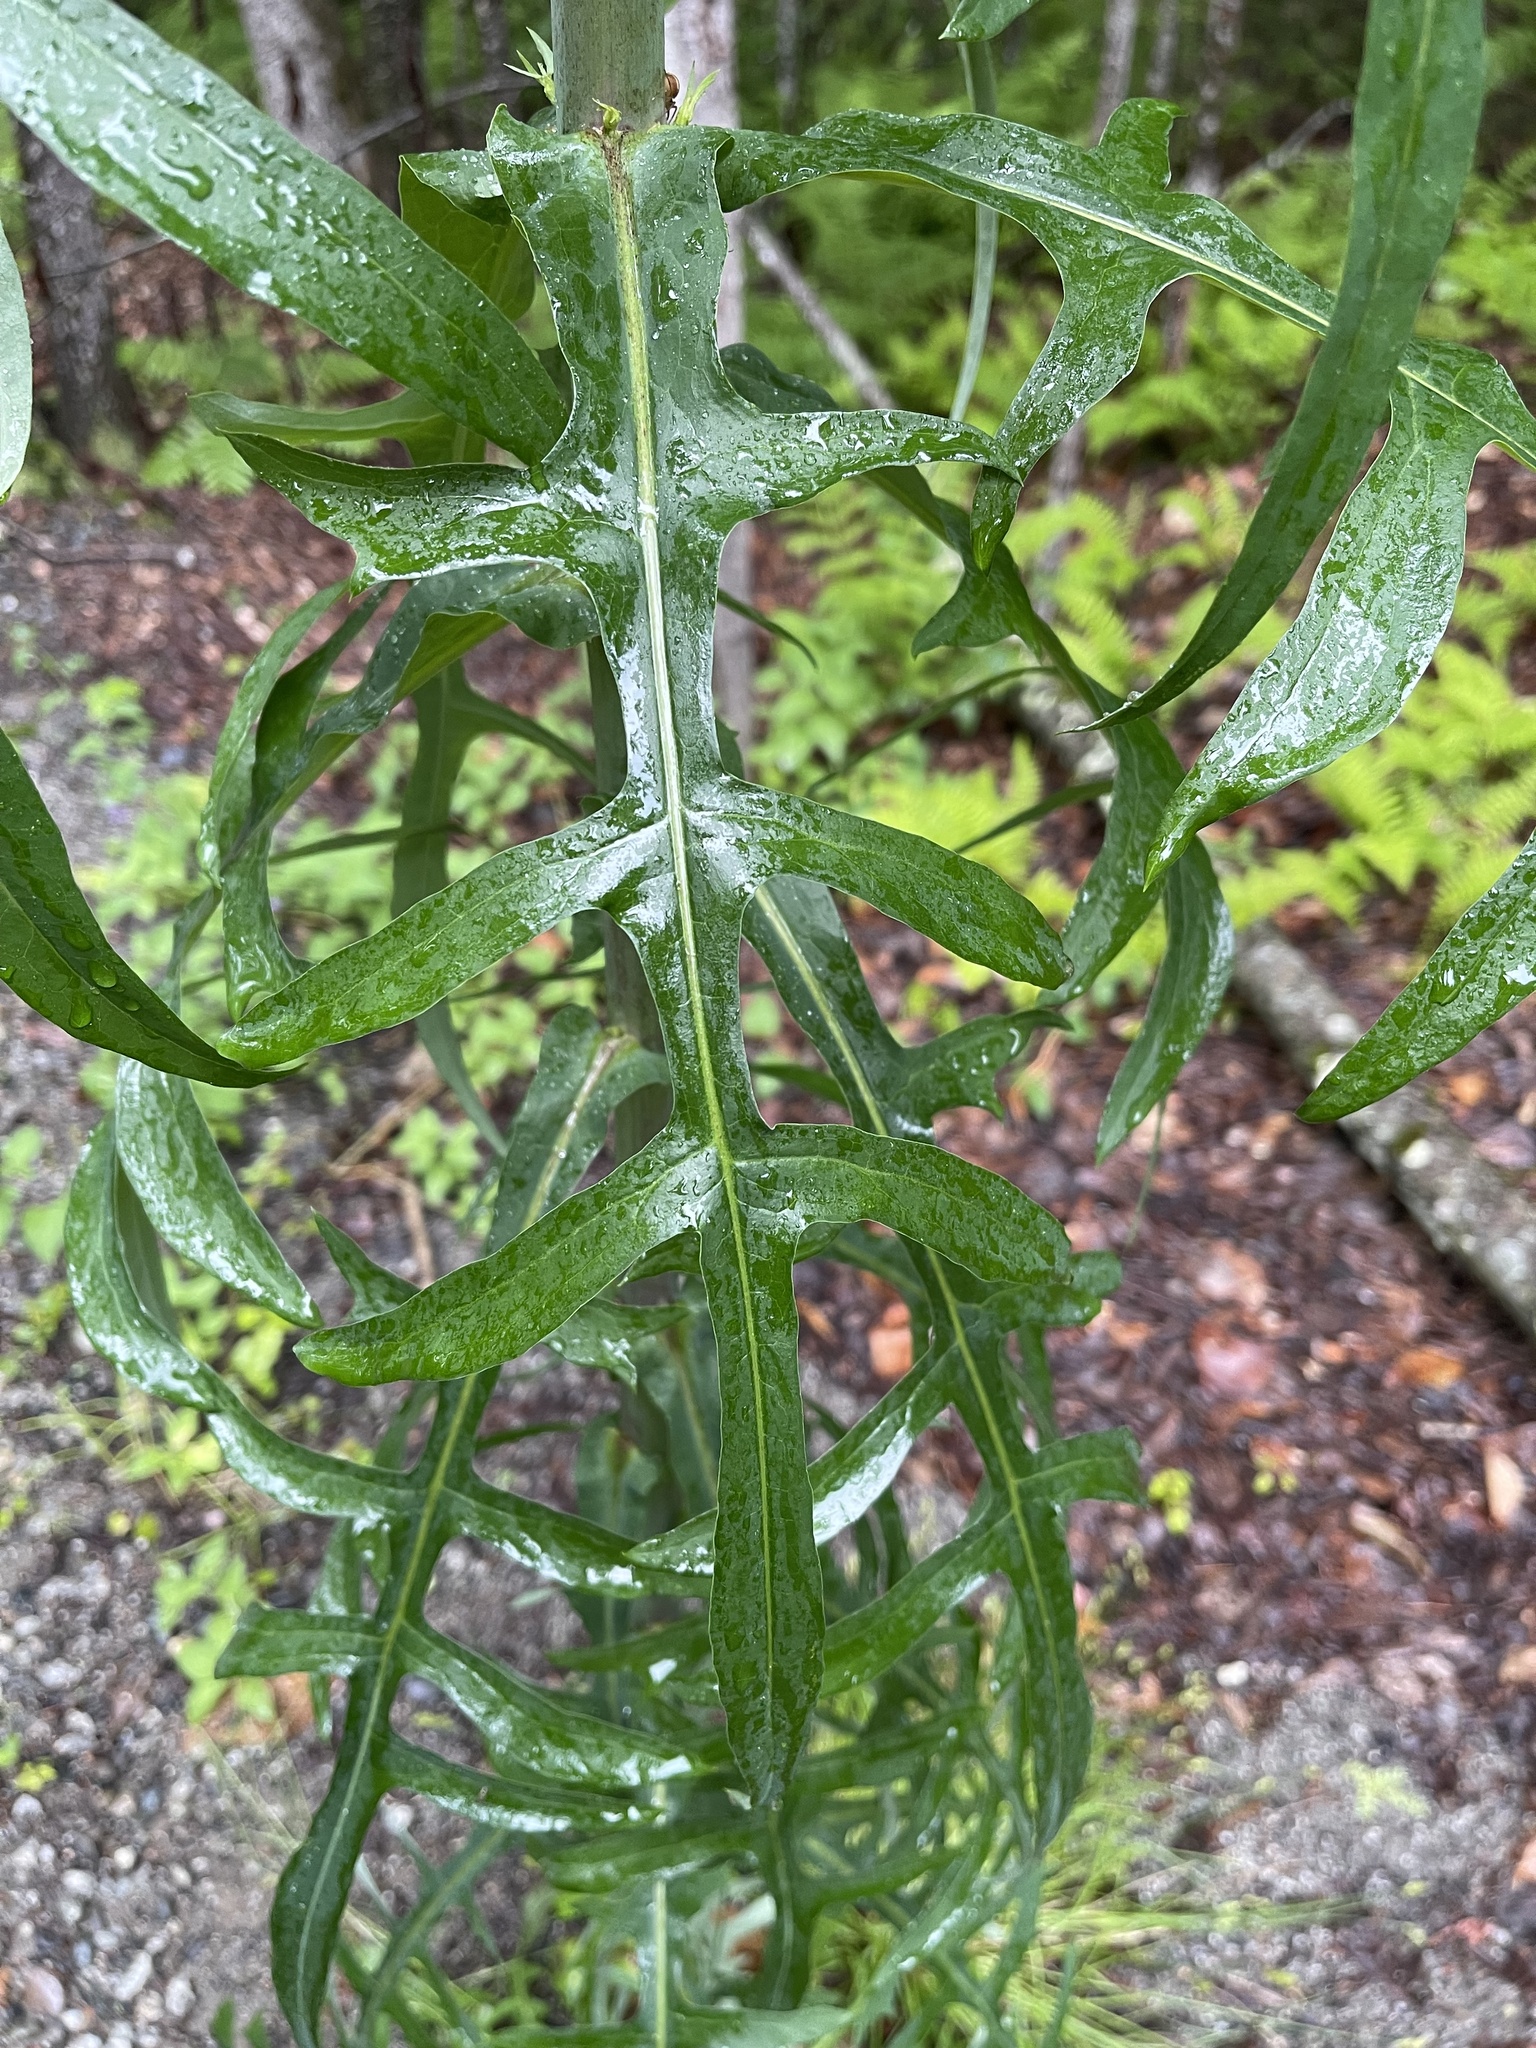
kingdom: Plantae
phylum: Tracheophyta
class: Magnoliopsida
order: Asterales
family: Asteraceae
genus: Lactuca
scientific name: Lactuca canadensis
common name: Canada lettuce
